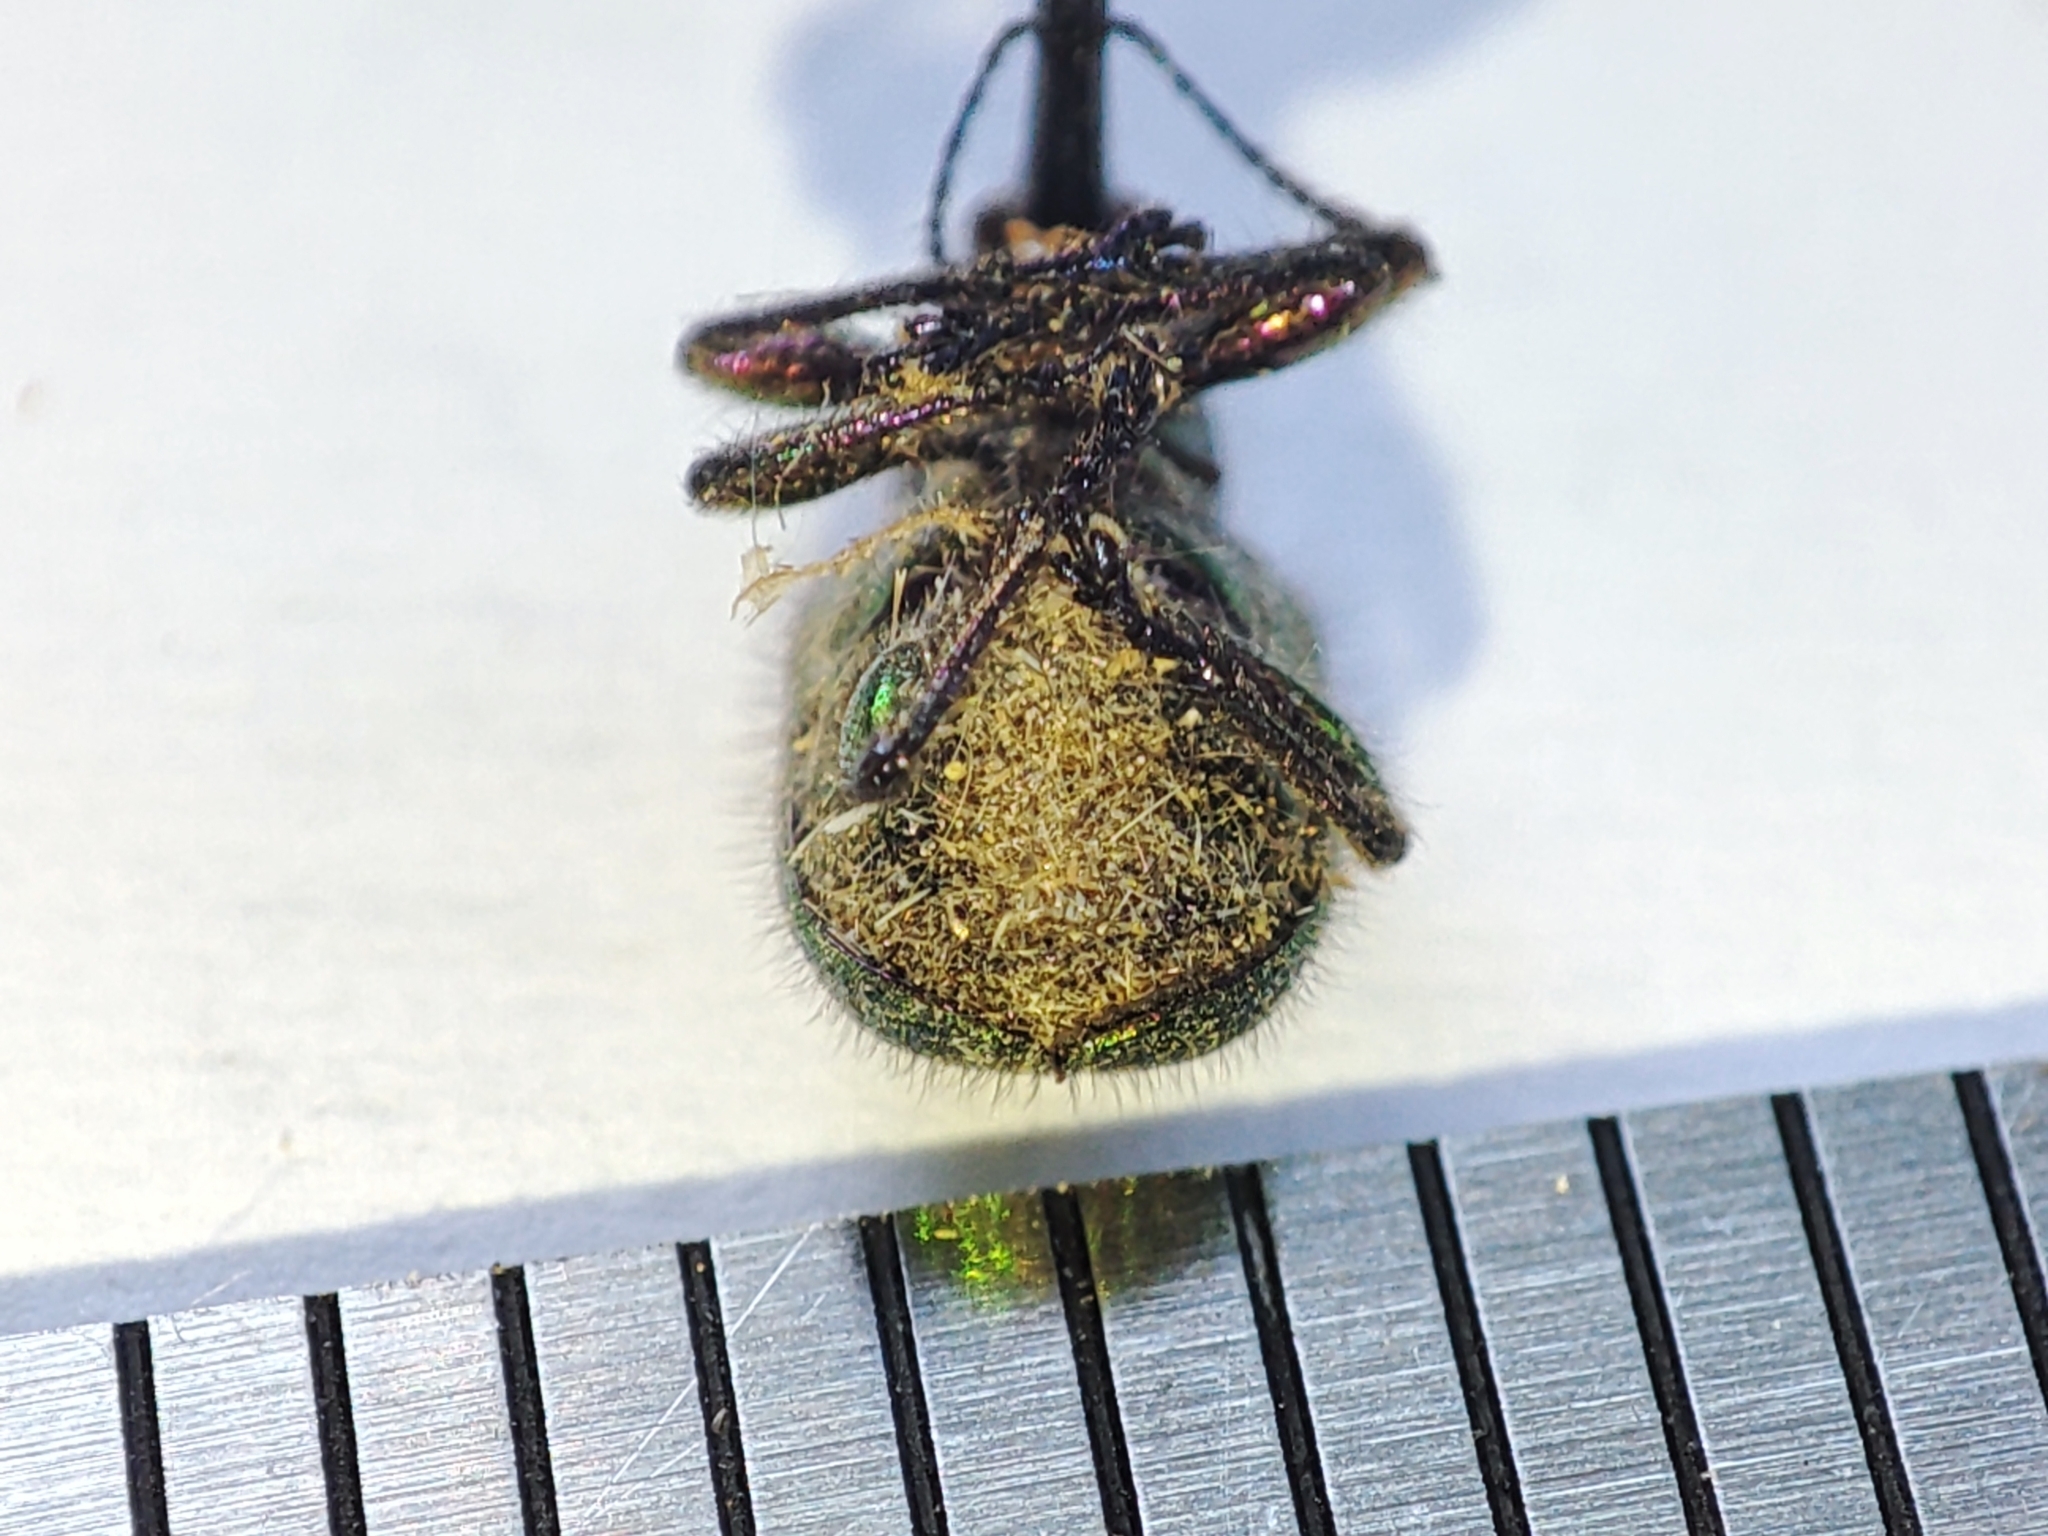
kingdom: Animalia
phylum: Arthropoda
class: Insecta
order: Coleoptera
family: Attelabidae
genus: Rhynchites
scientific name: Rhynchites bacchus
